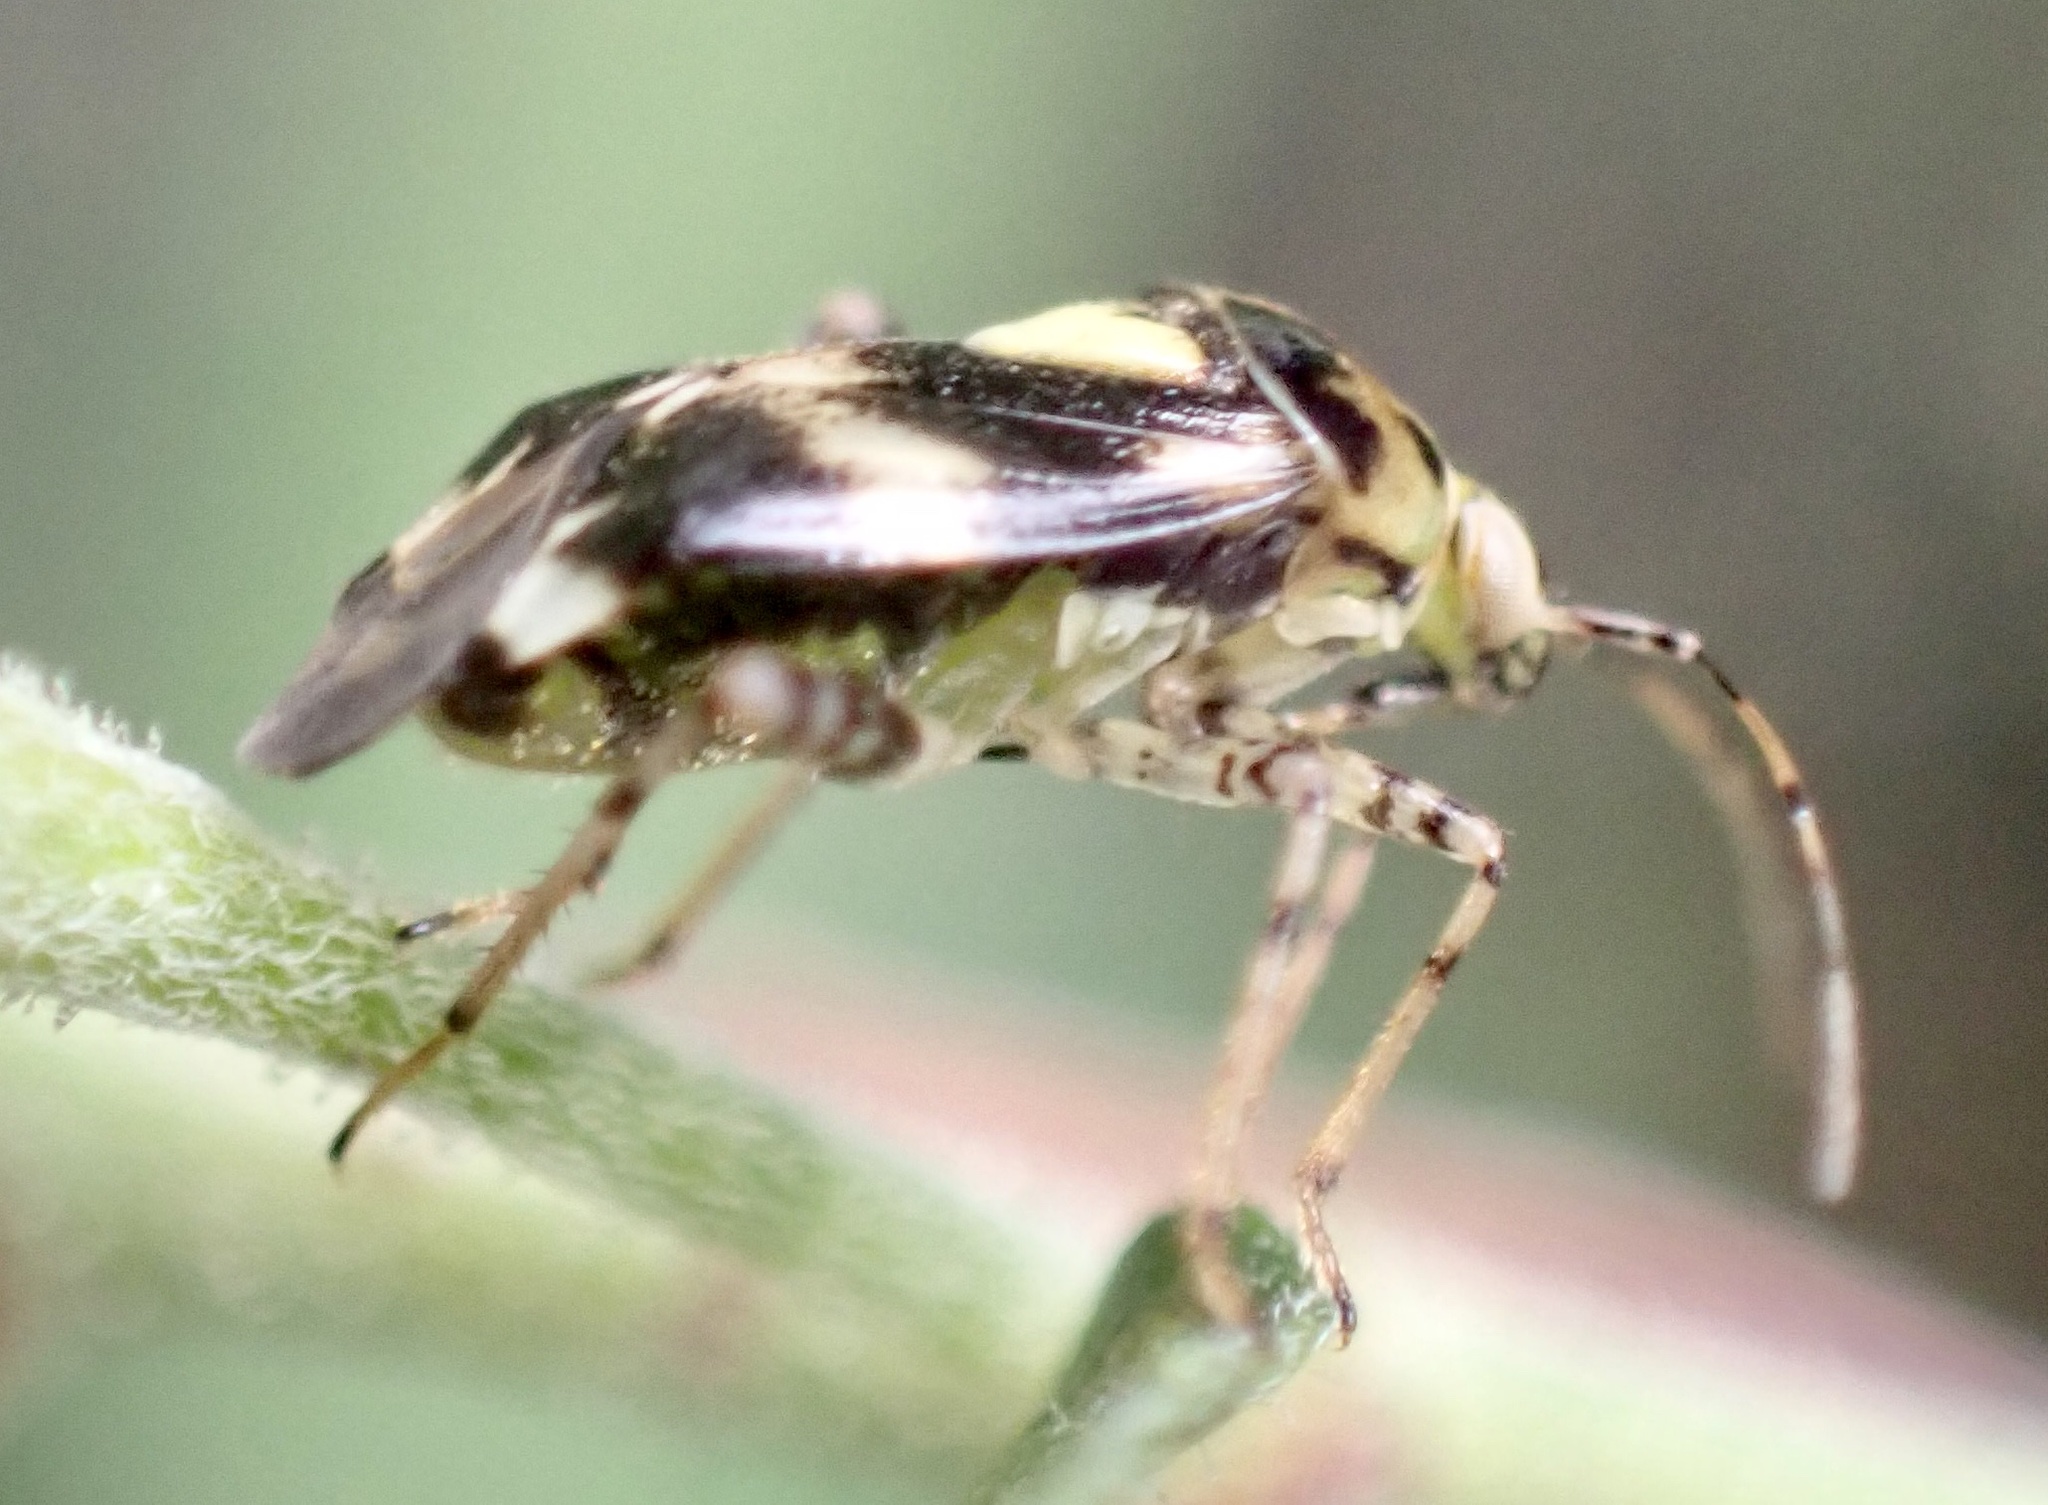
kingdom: Animalia
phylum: Arthropoda
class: Insecta
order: Hemiptera
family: Miridae
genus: Liocoris
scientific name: Liocoris tripustulatus
